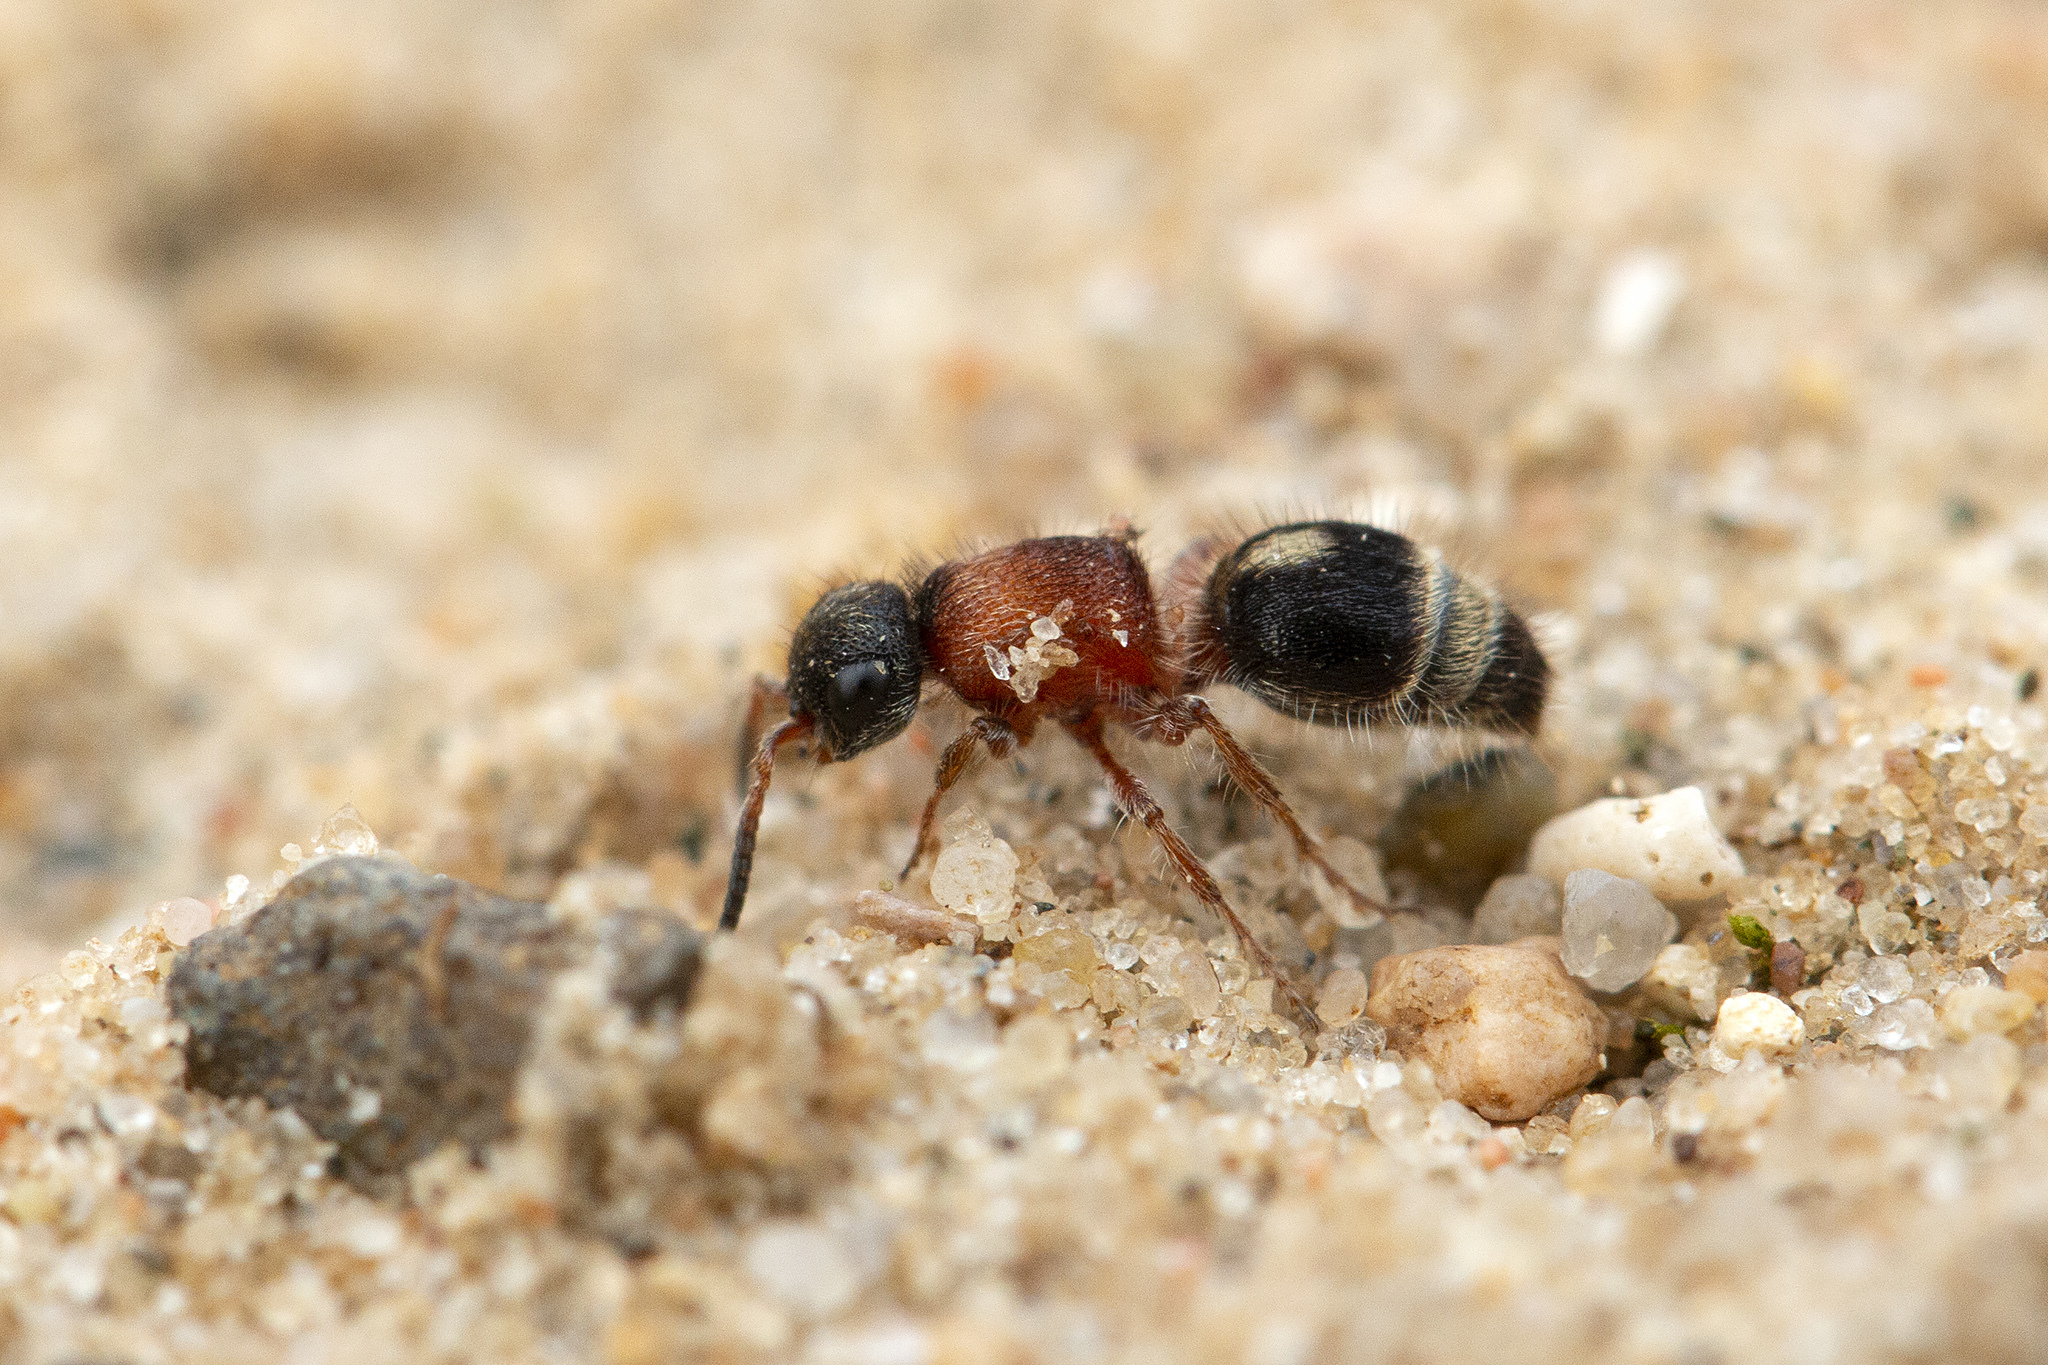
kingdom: Animalia
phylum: Arthropoda
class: Insecta
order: Hymenoptera
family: Mutillidae
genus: Smicromyrme
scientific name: Smicromyrme rufipes
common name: Small velvet ant
